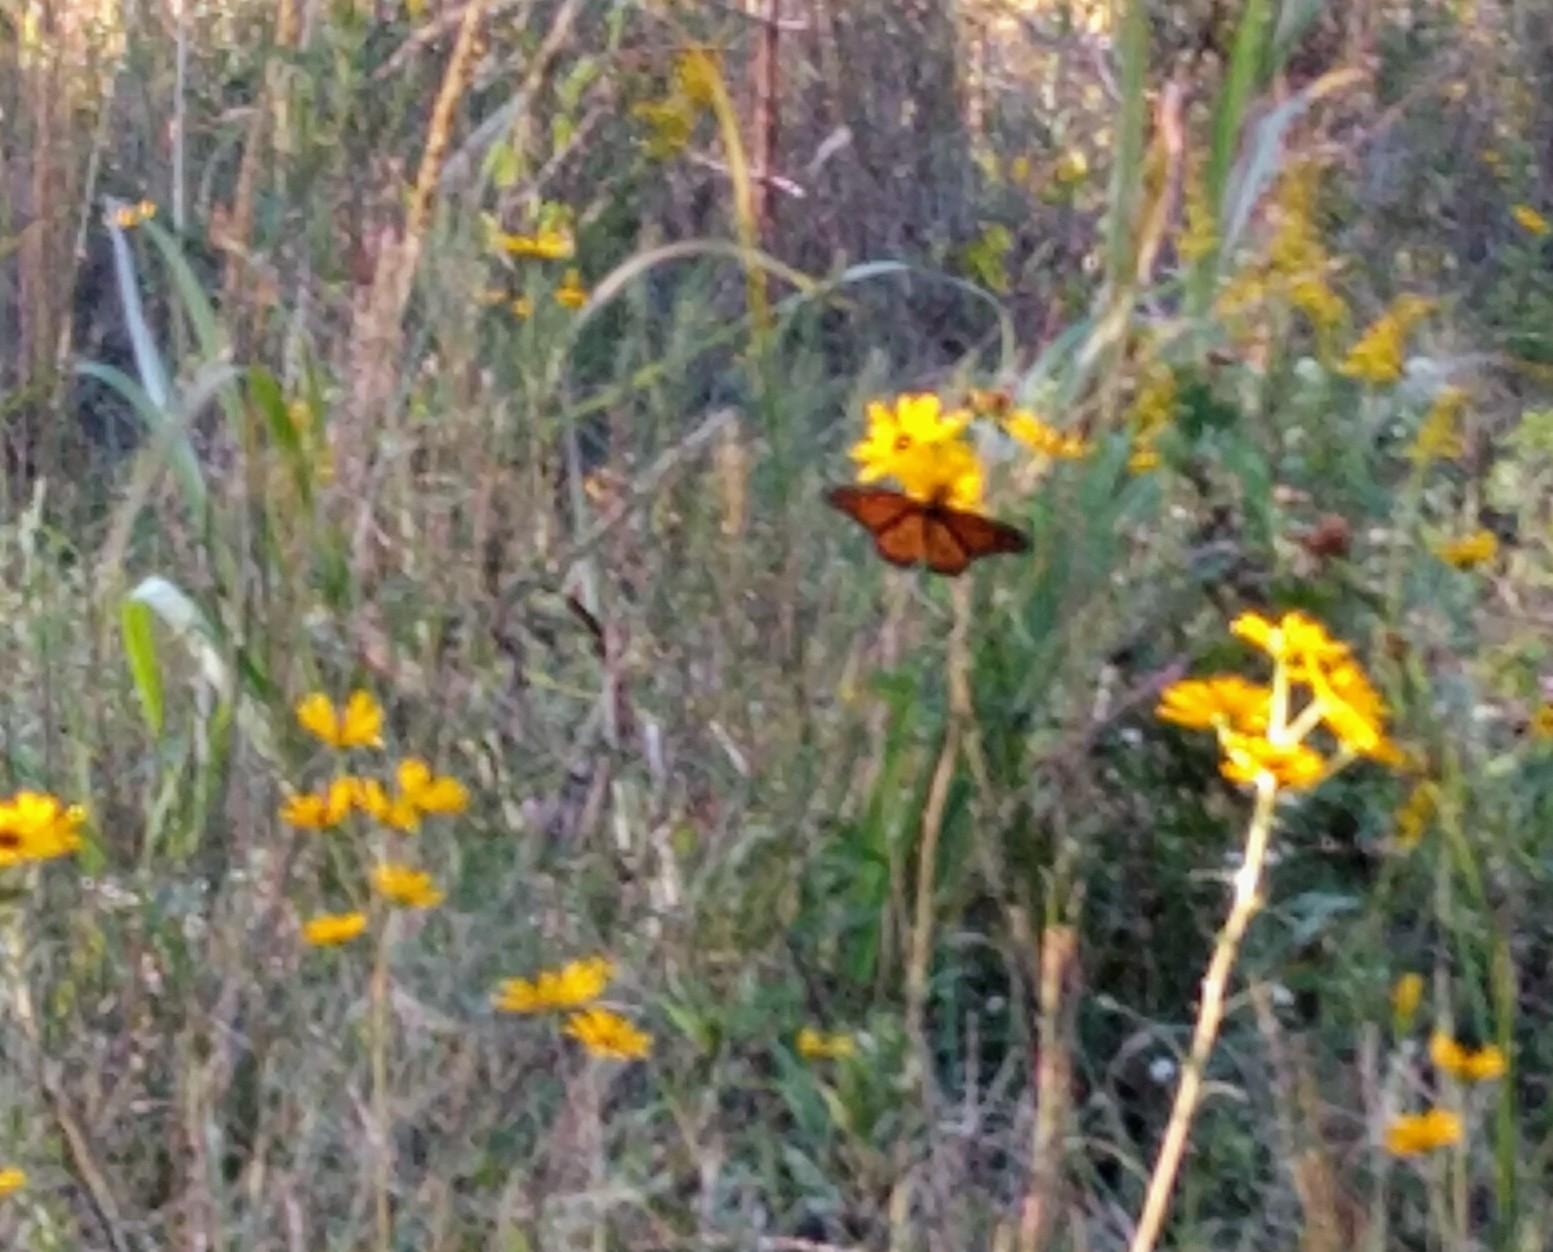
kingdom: Animalia
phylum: Arthropoda
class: Insecta
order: Lepidoptera
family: Nymphalidae
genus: Danaus
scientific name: Danaus plexippus
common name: Monarch
